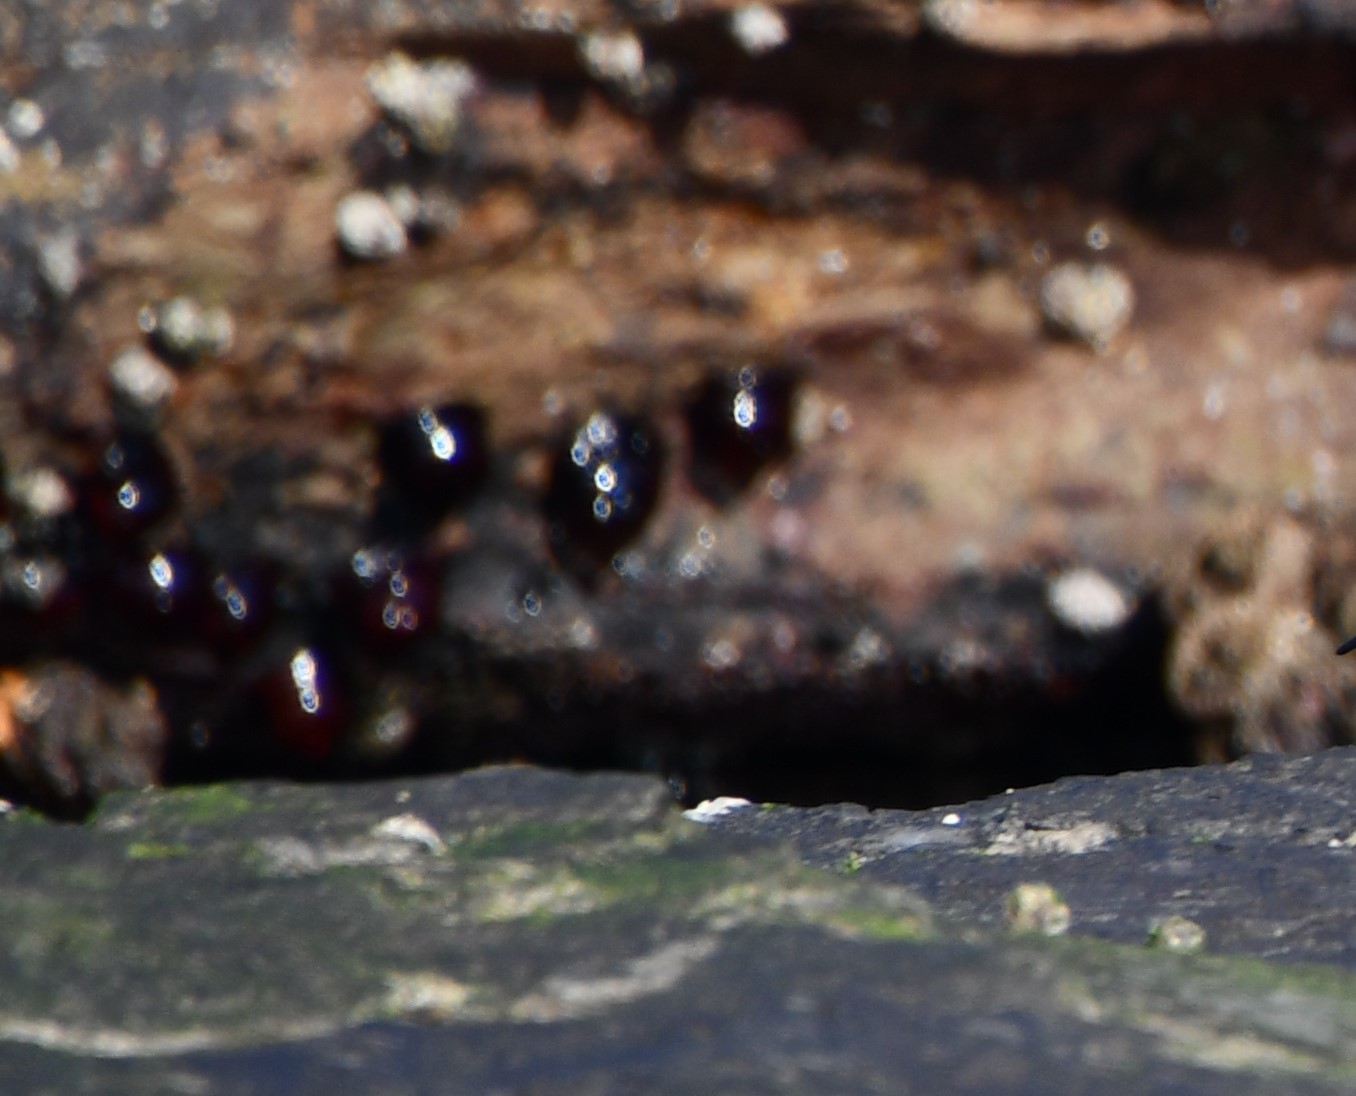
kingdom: Animalia
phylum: Cnidaria
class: Anthozoa
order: Actiniaria
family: Actiniidae
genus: Actinia
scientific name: Actinia tenebrosa
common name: Waratah anemone
